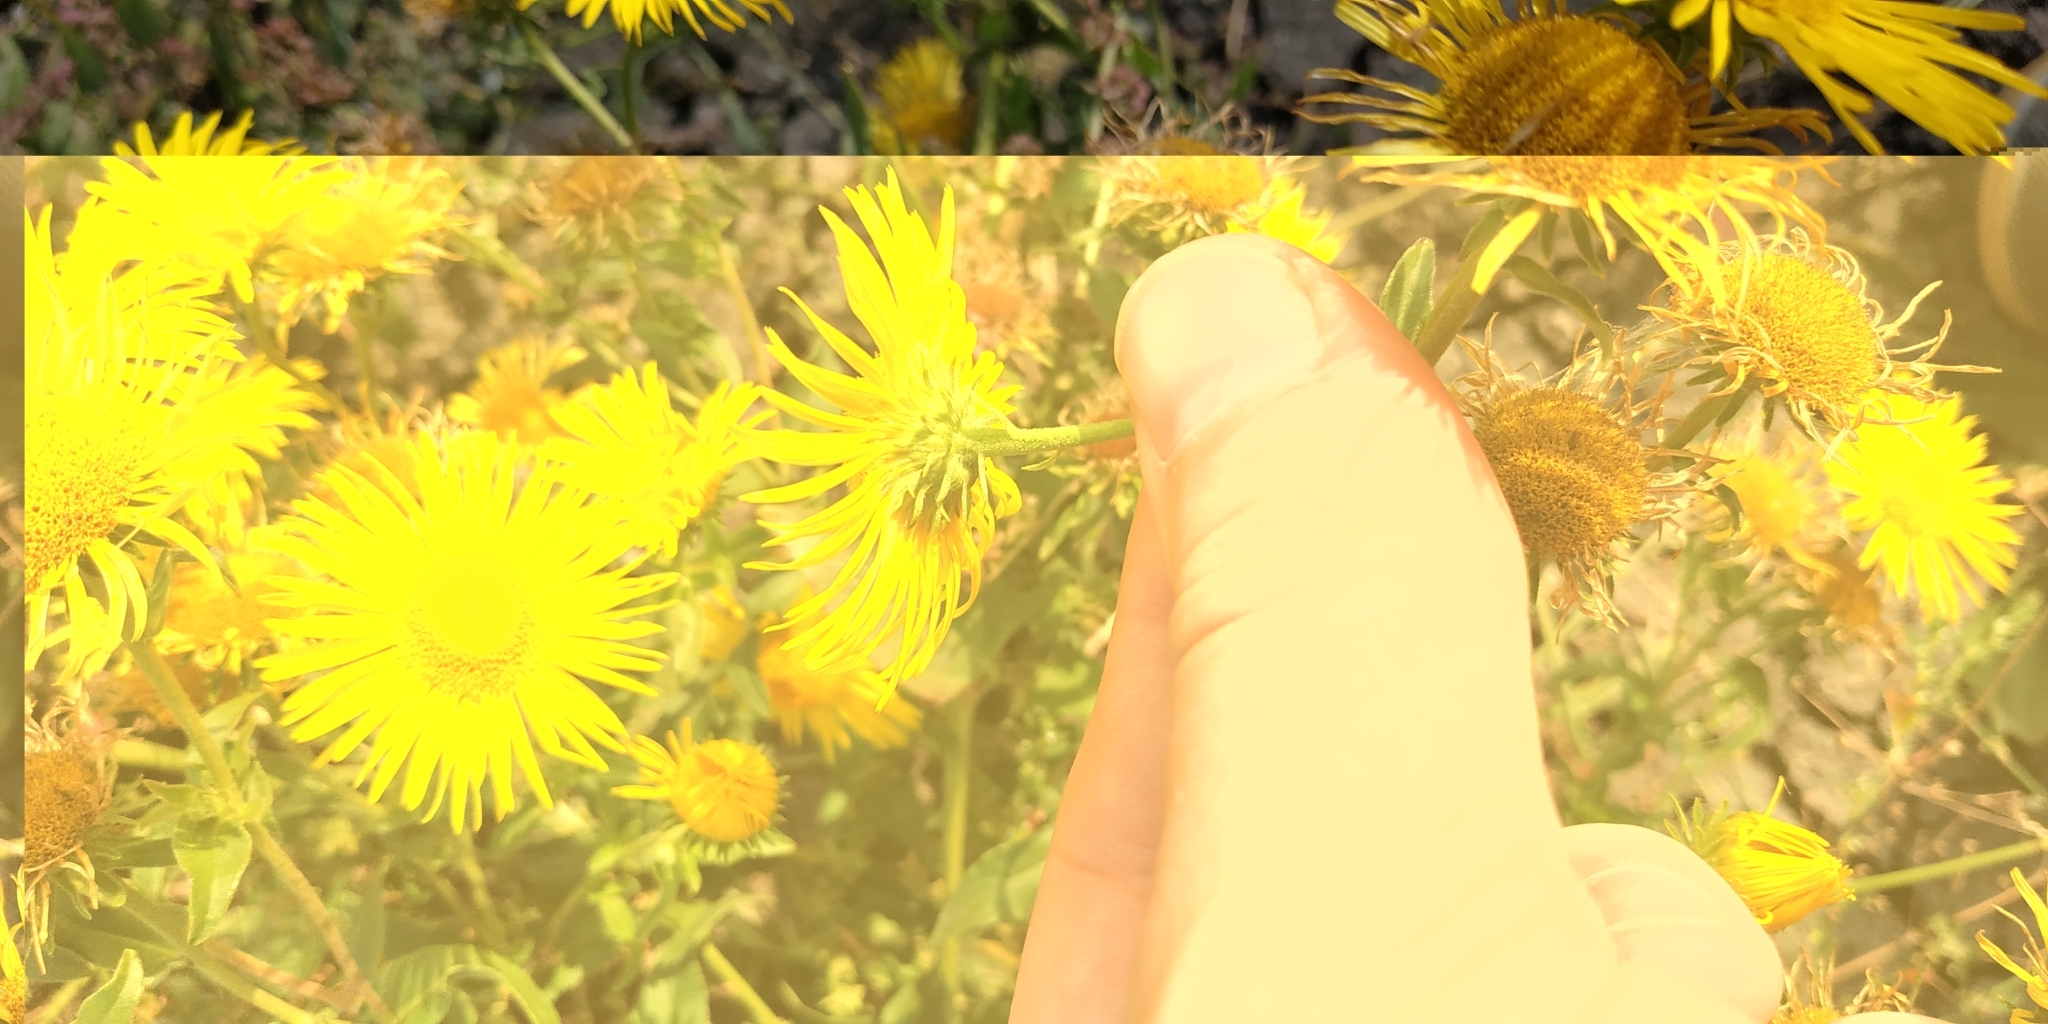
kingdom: Plantae
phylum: Tracheophyta
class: Magnoliopsida
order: Asterales
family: Asteraceae
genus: Pentanema
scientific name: Pentanema britannicum
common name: British elecampane
